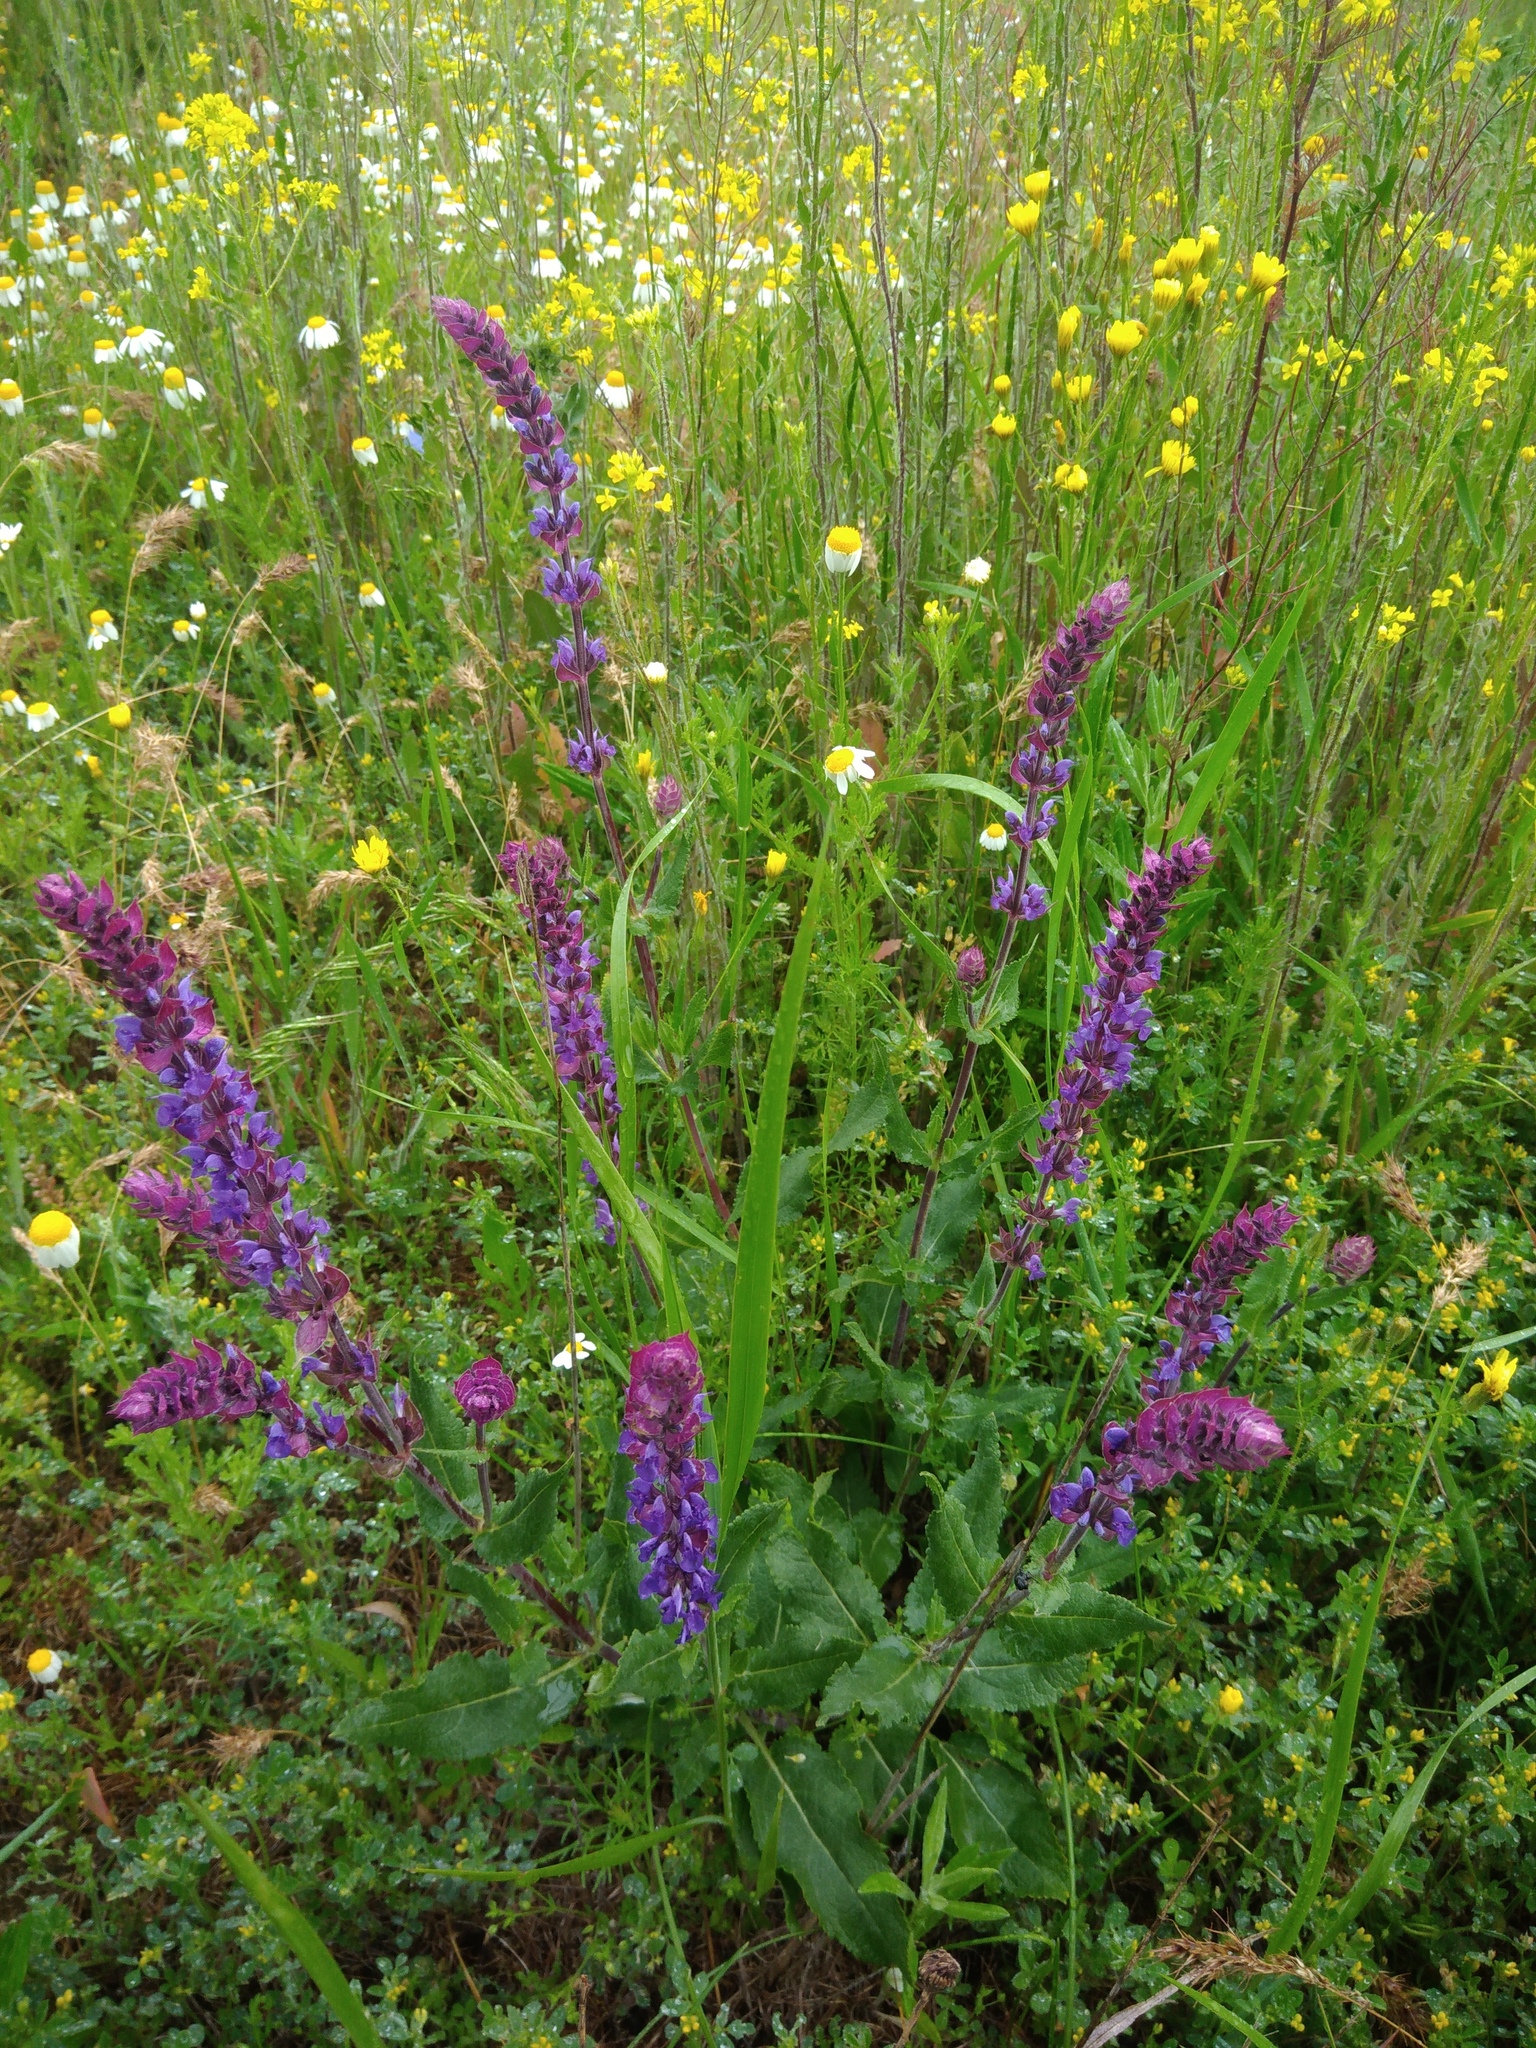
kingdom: Plantae
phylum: Tracheophyta
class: Magnoliopsida
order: Lamiales
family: Lamiaceae
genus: Salvia
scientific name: Salvia nemorosa
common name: Balkan clary
